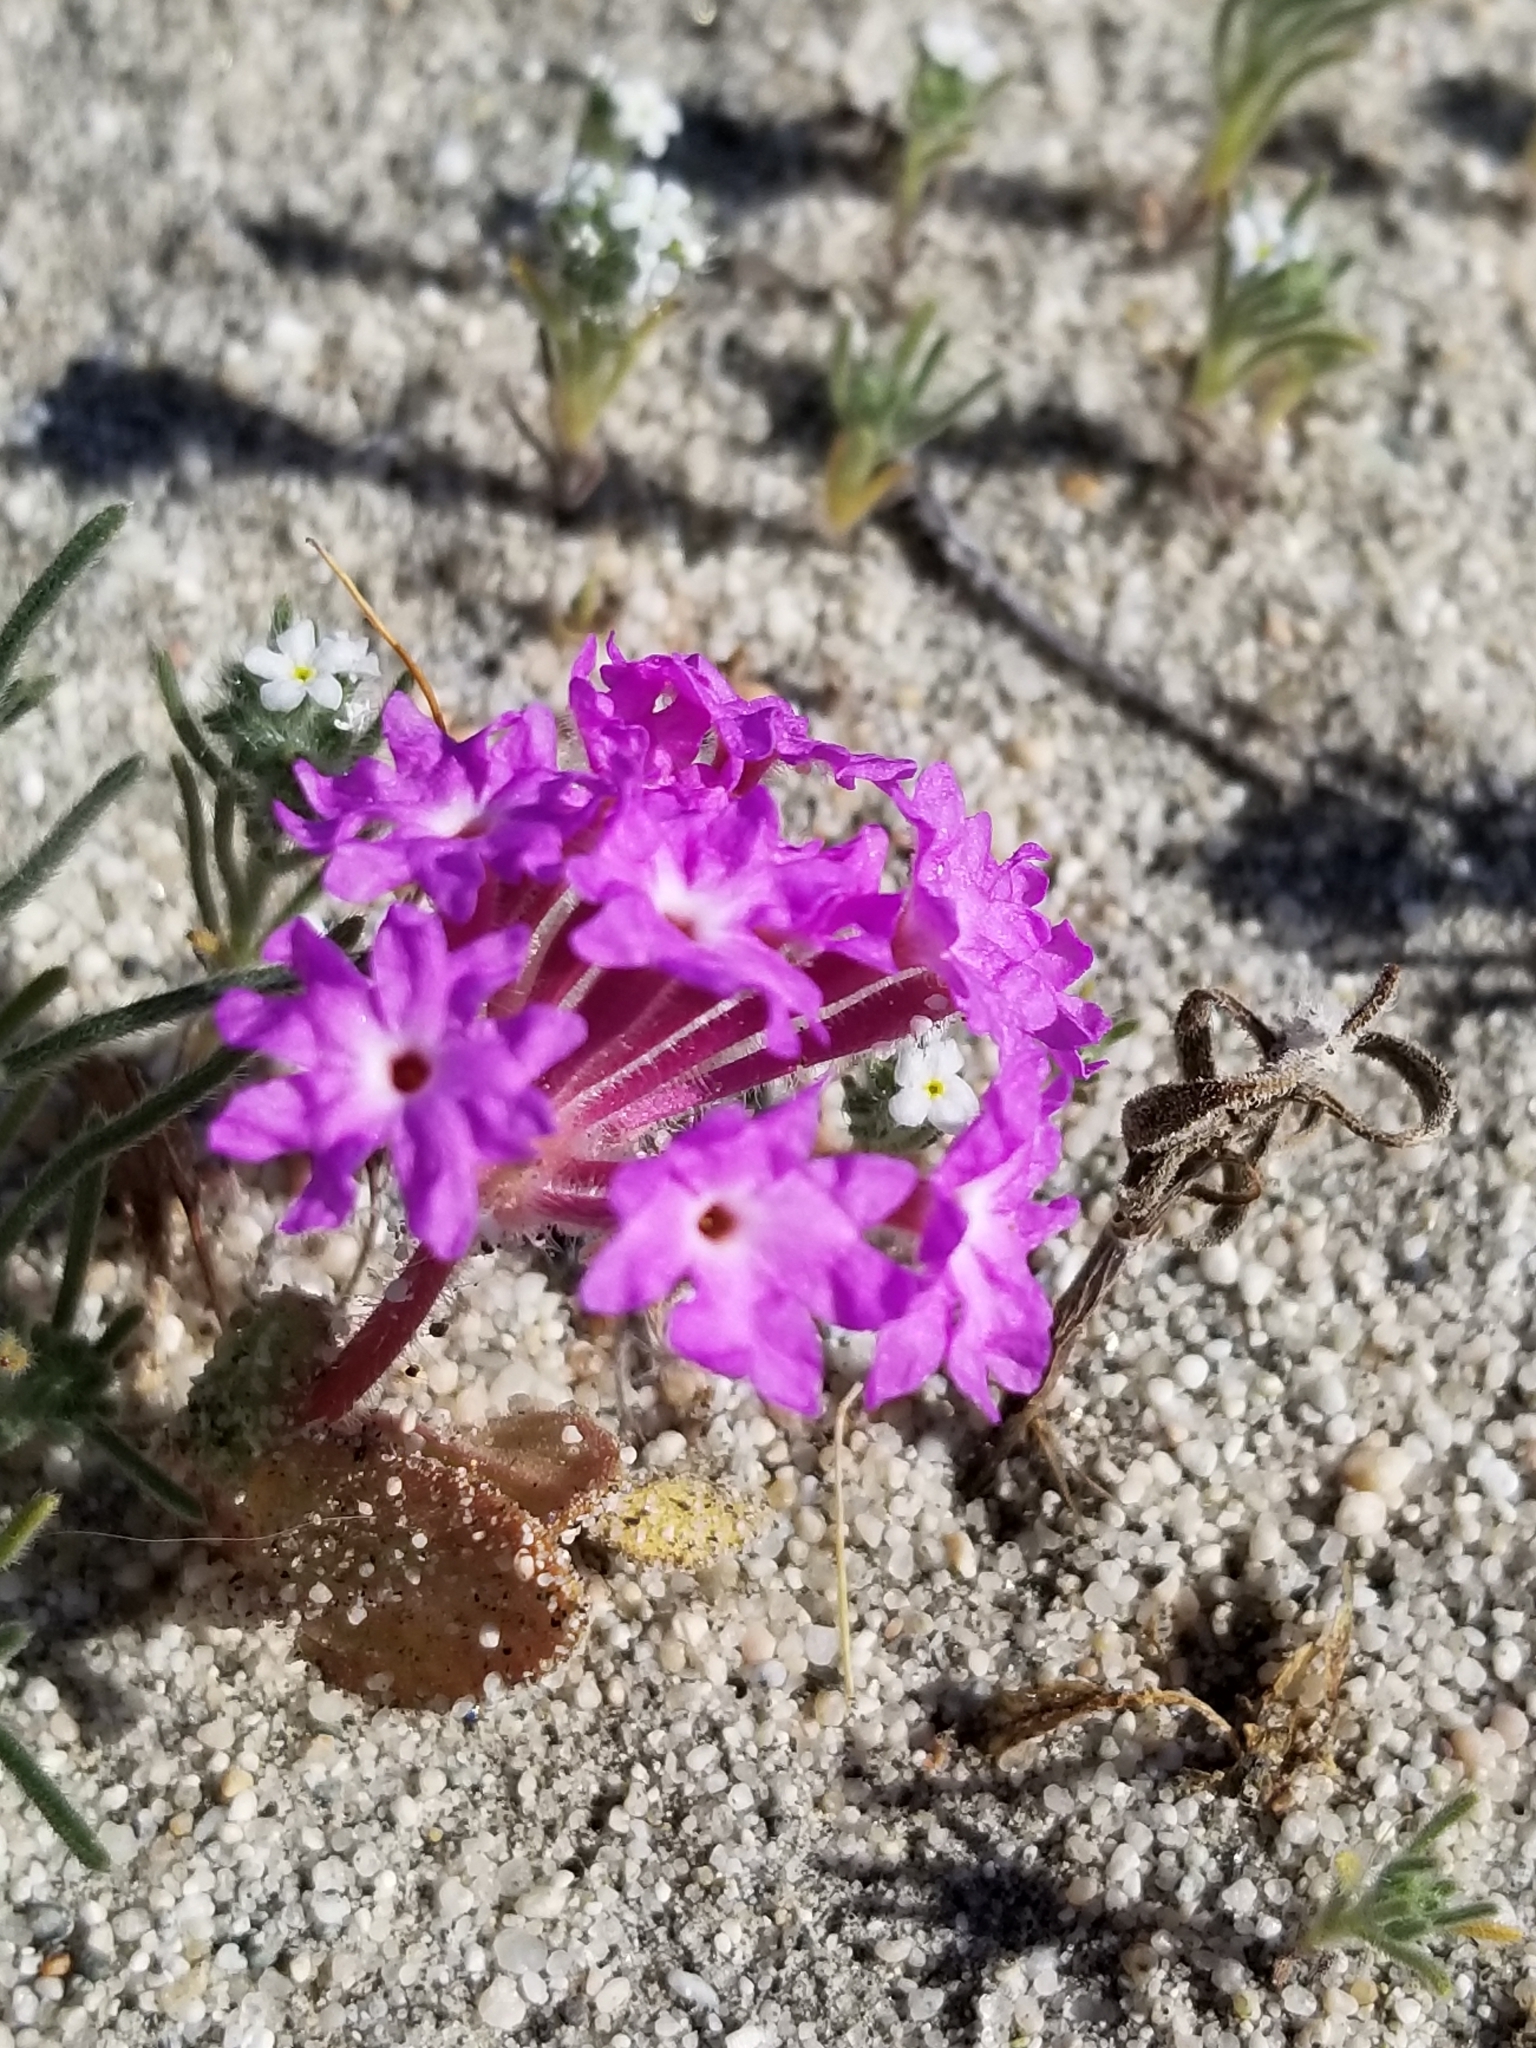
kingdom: Plantae
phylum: Tracheophyta
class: Magnoliopsida
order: Caryophyllales
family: Nyctaginaceae
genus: Abronia
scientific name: Abronia villosa
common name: Desert sand-verbena
